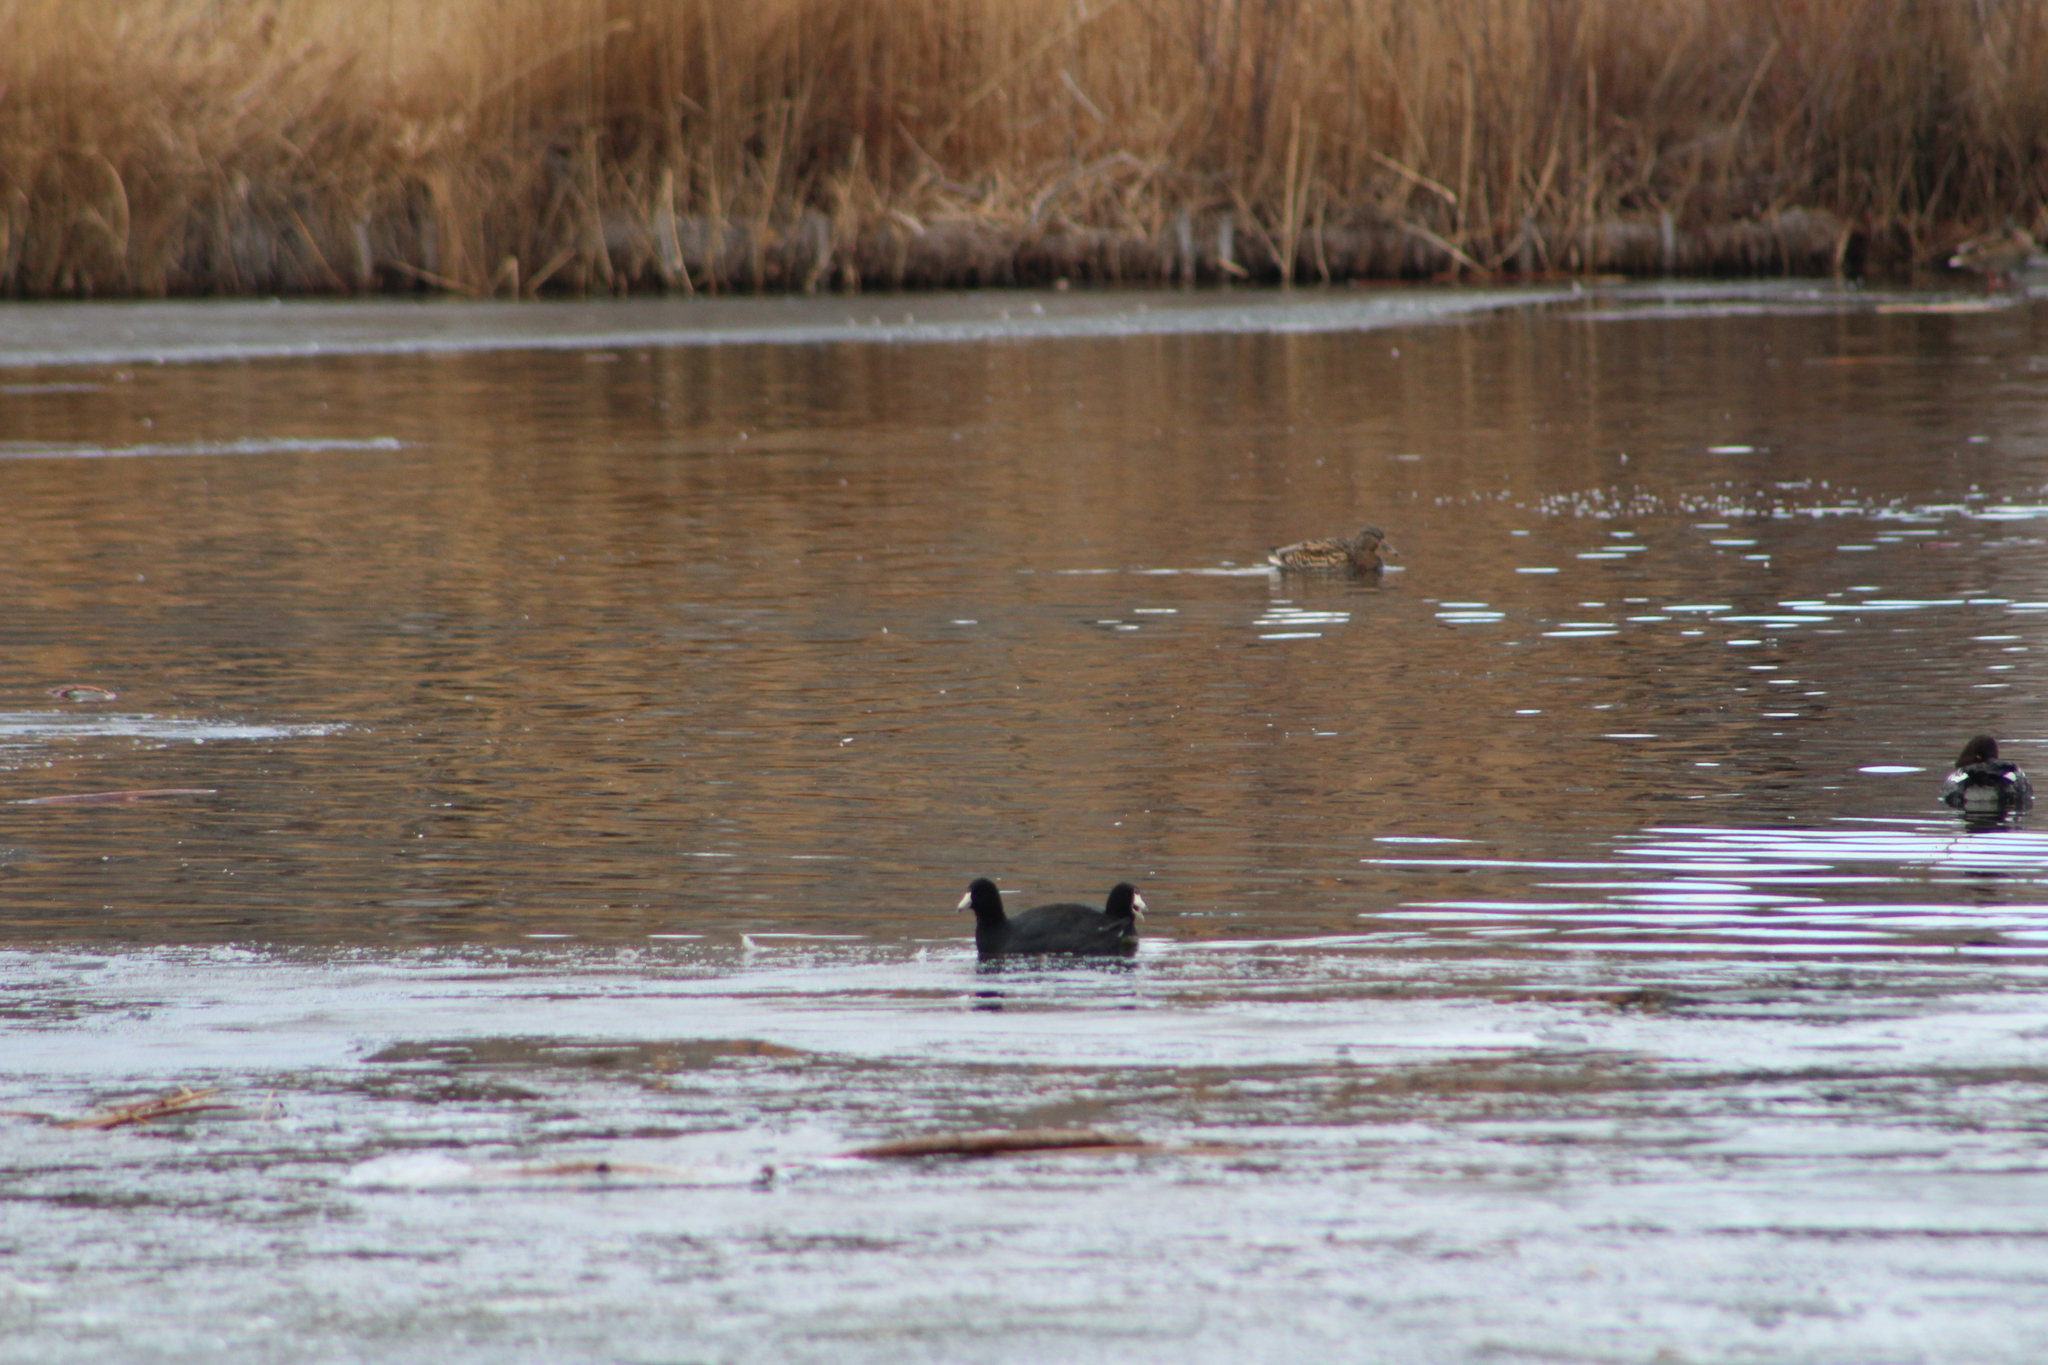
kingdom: Animalia
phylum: Chordata
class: Aves
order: Gruiformes
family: Rallidae
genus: Fulica
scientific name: Fulica americana
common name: American coot
